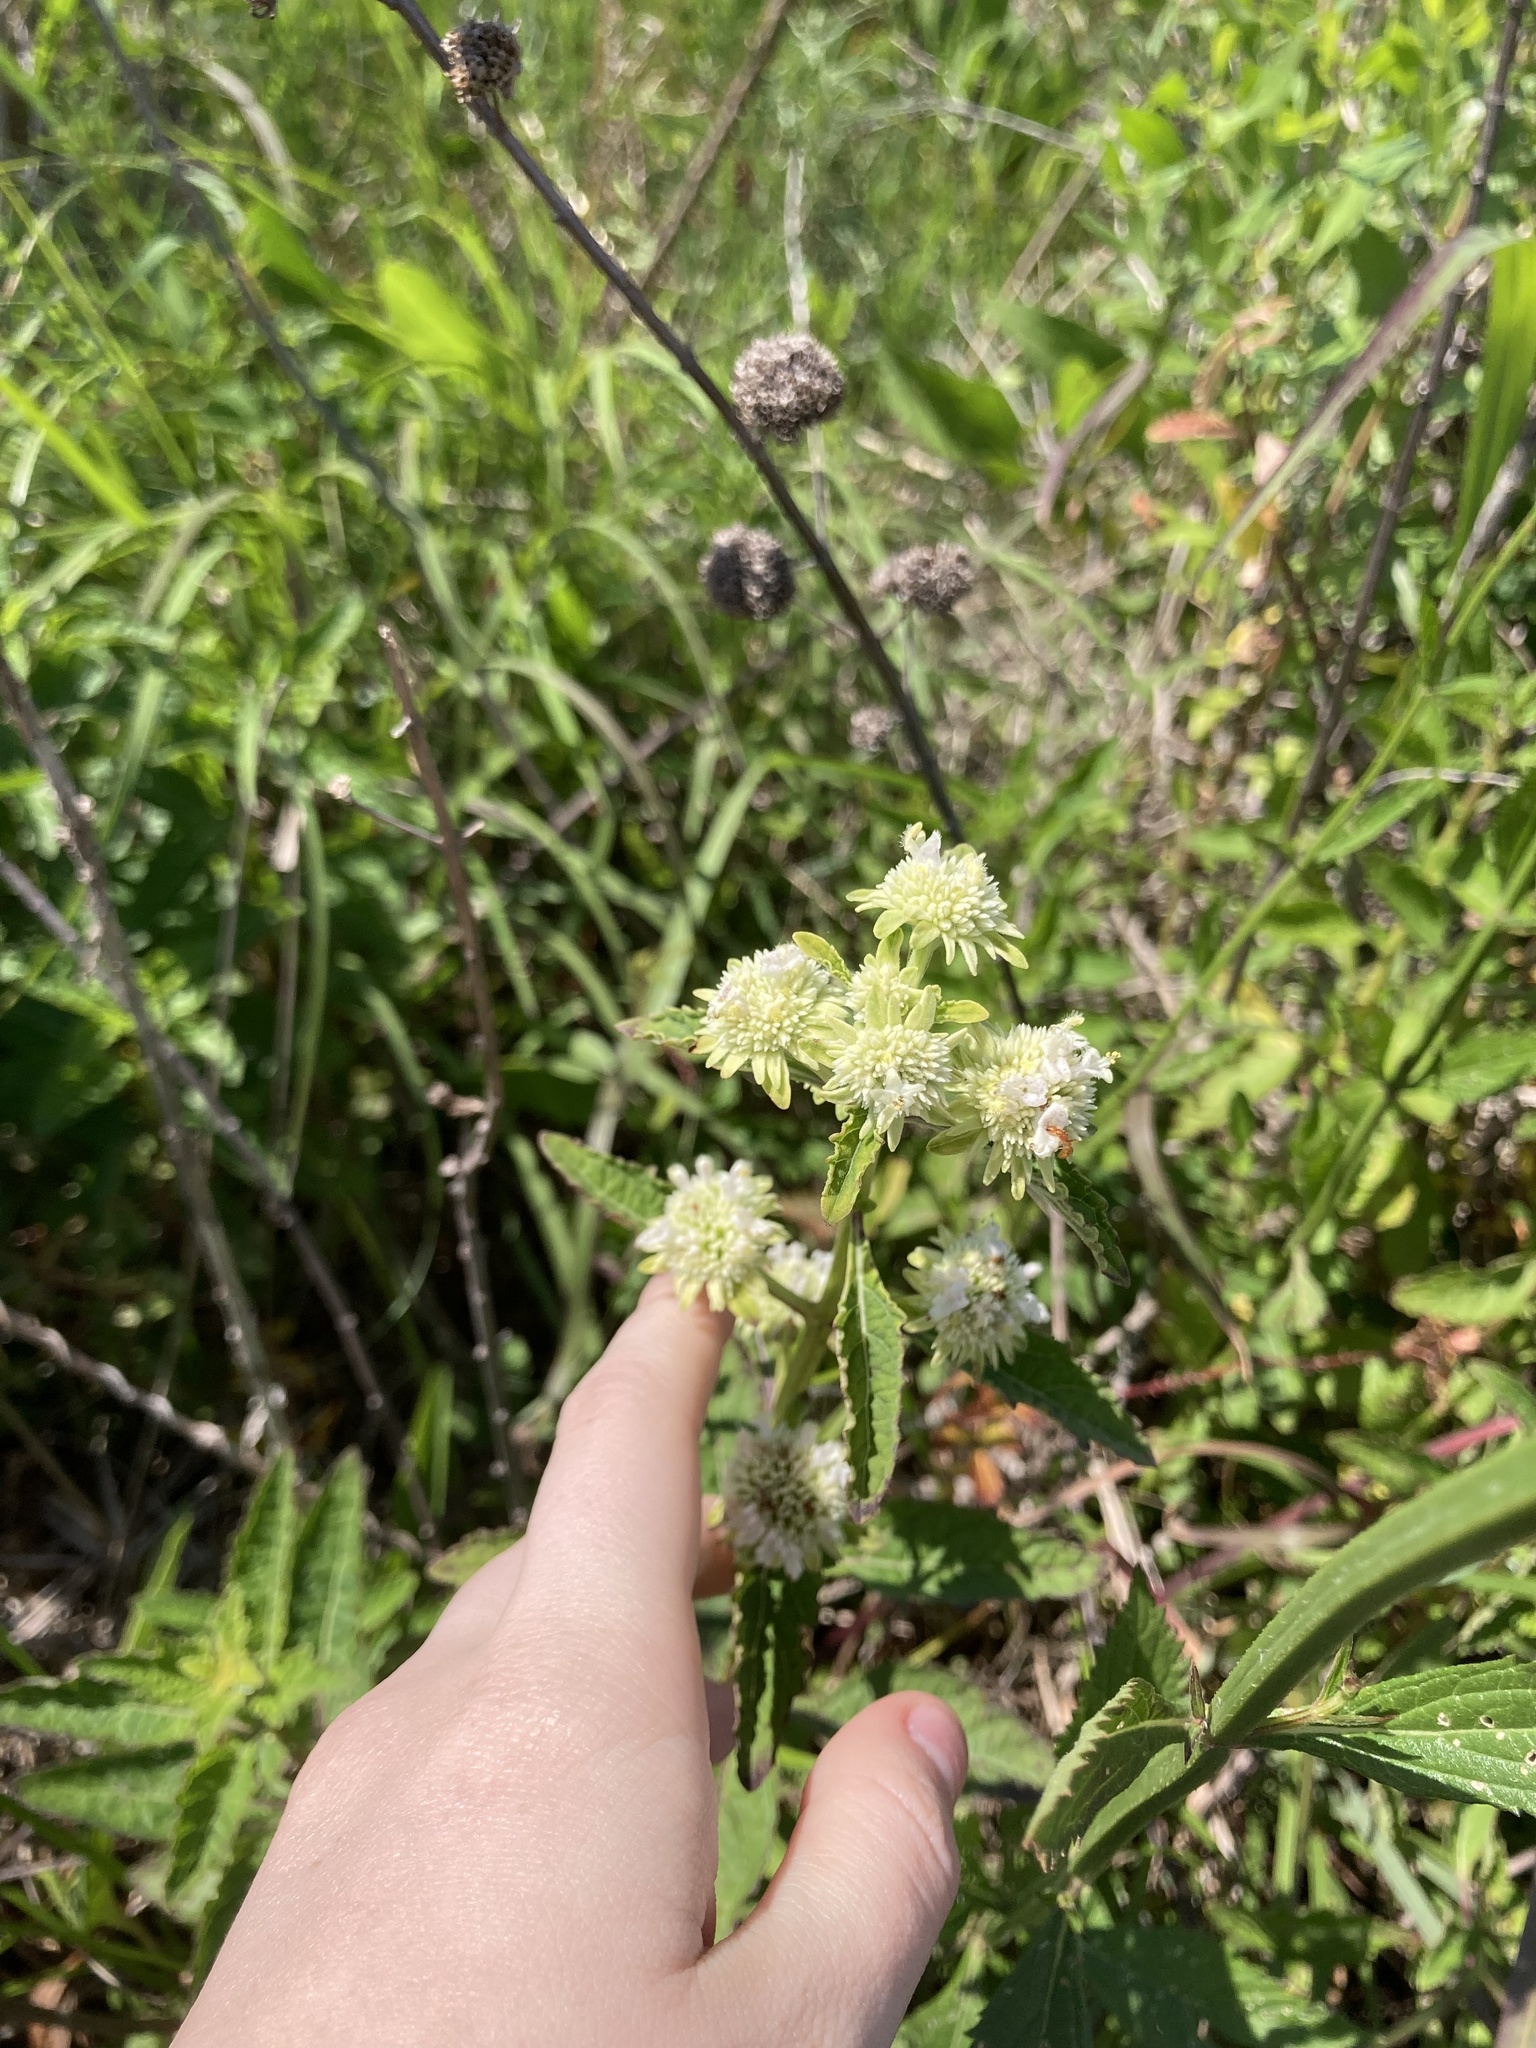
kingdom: Plantae
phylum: Tracheophyta
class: Magnoliopsida
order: Lamiales
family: Lamiaceae
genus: Hyptis
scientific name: Hyptis alata
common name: Cluster bush-mint
